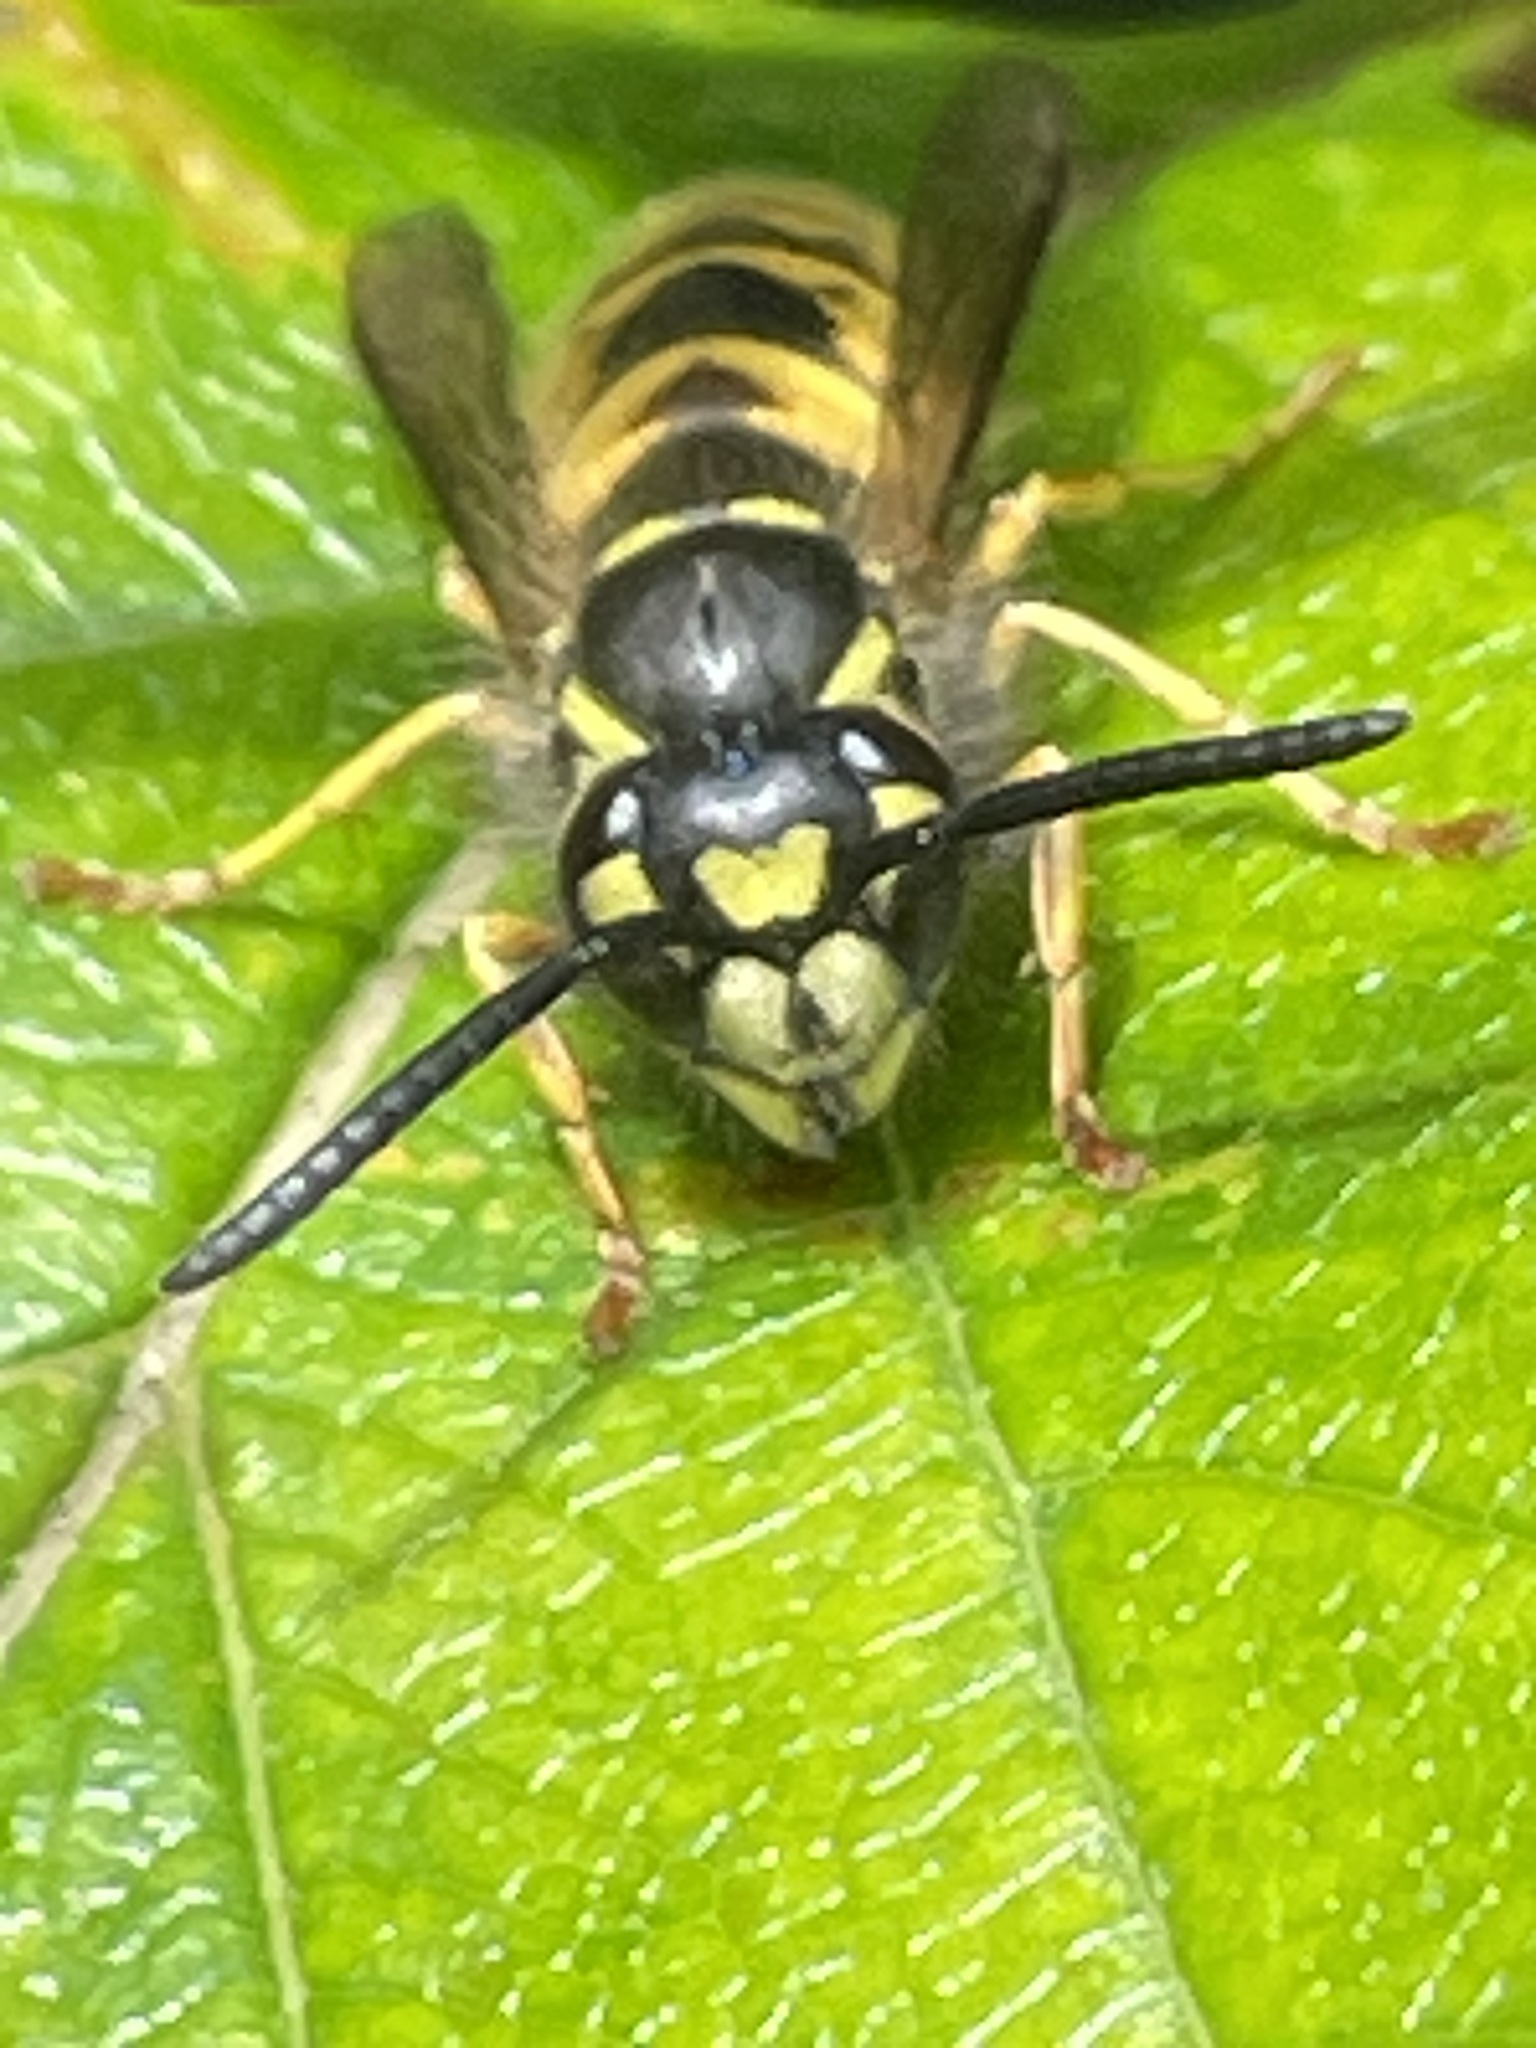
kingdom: Animalia
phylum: Arthropoda
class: Insecta
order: Hymenoptera
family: Vespidae
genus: Vespula
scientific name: Vespula vulgaris
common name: Common wasp
